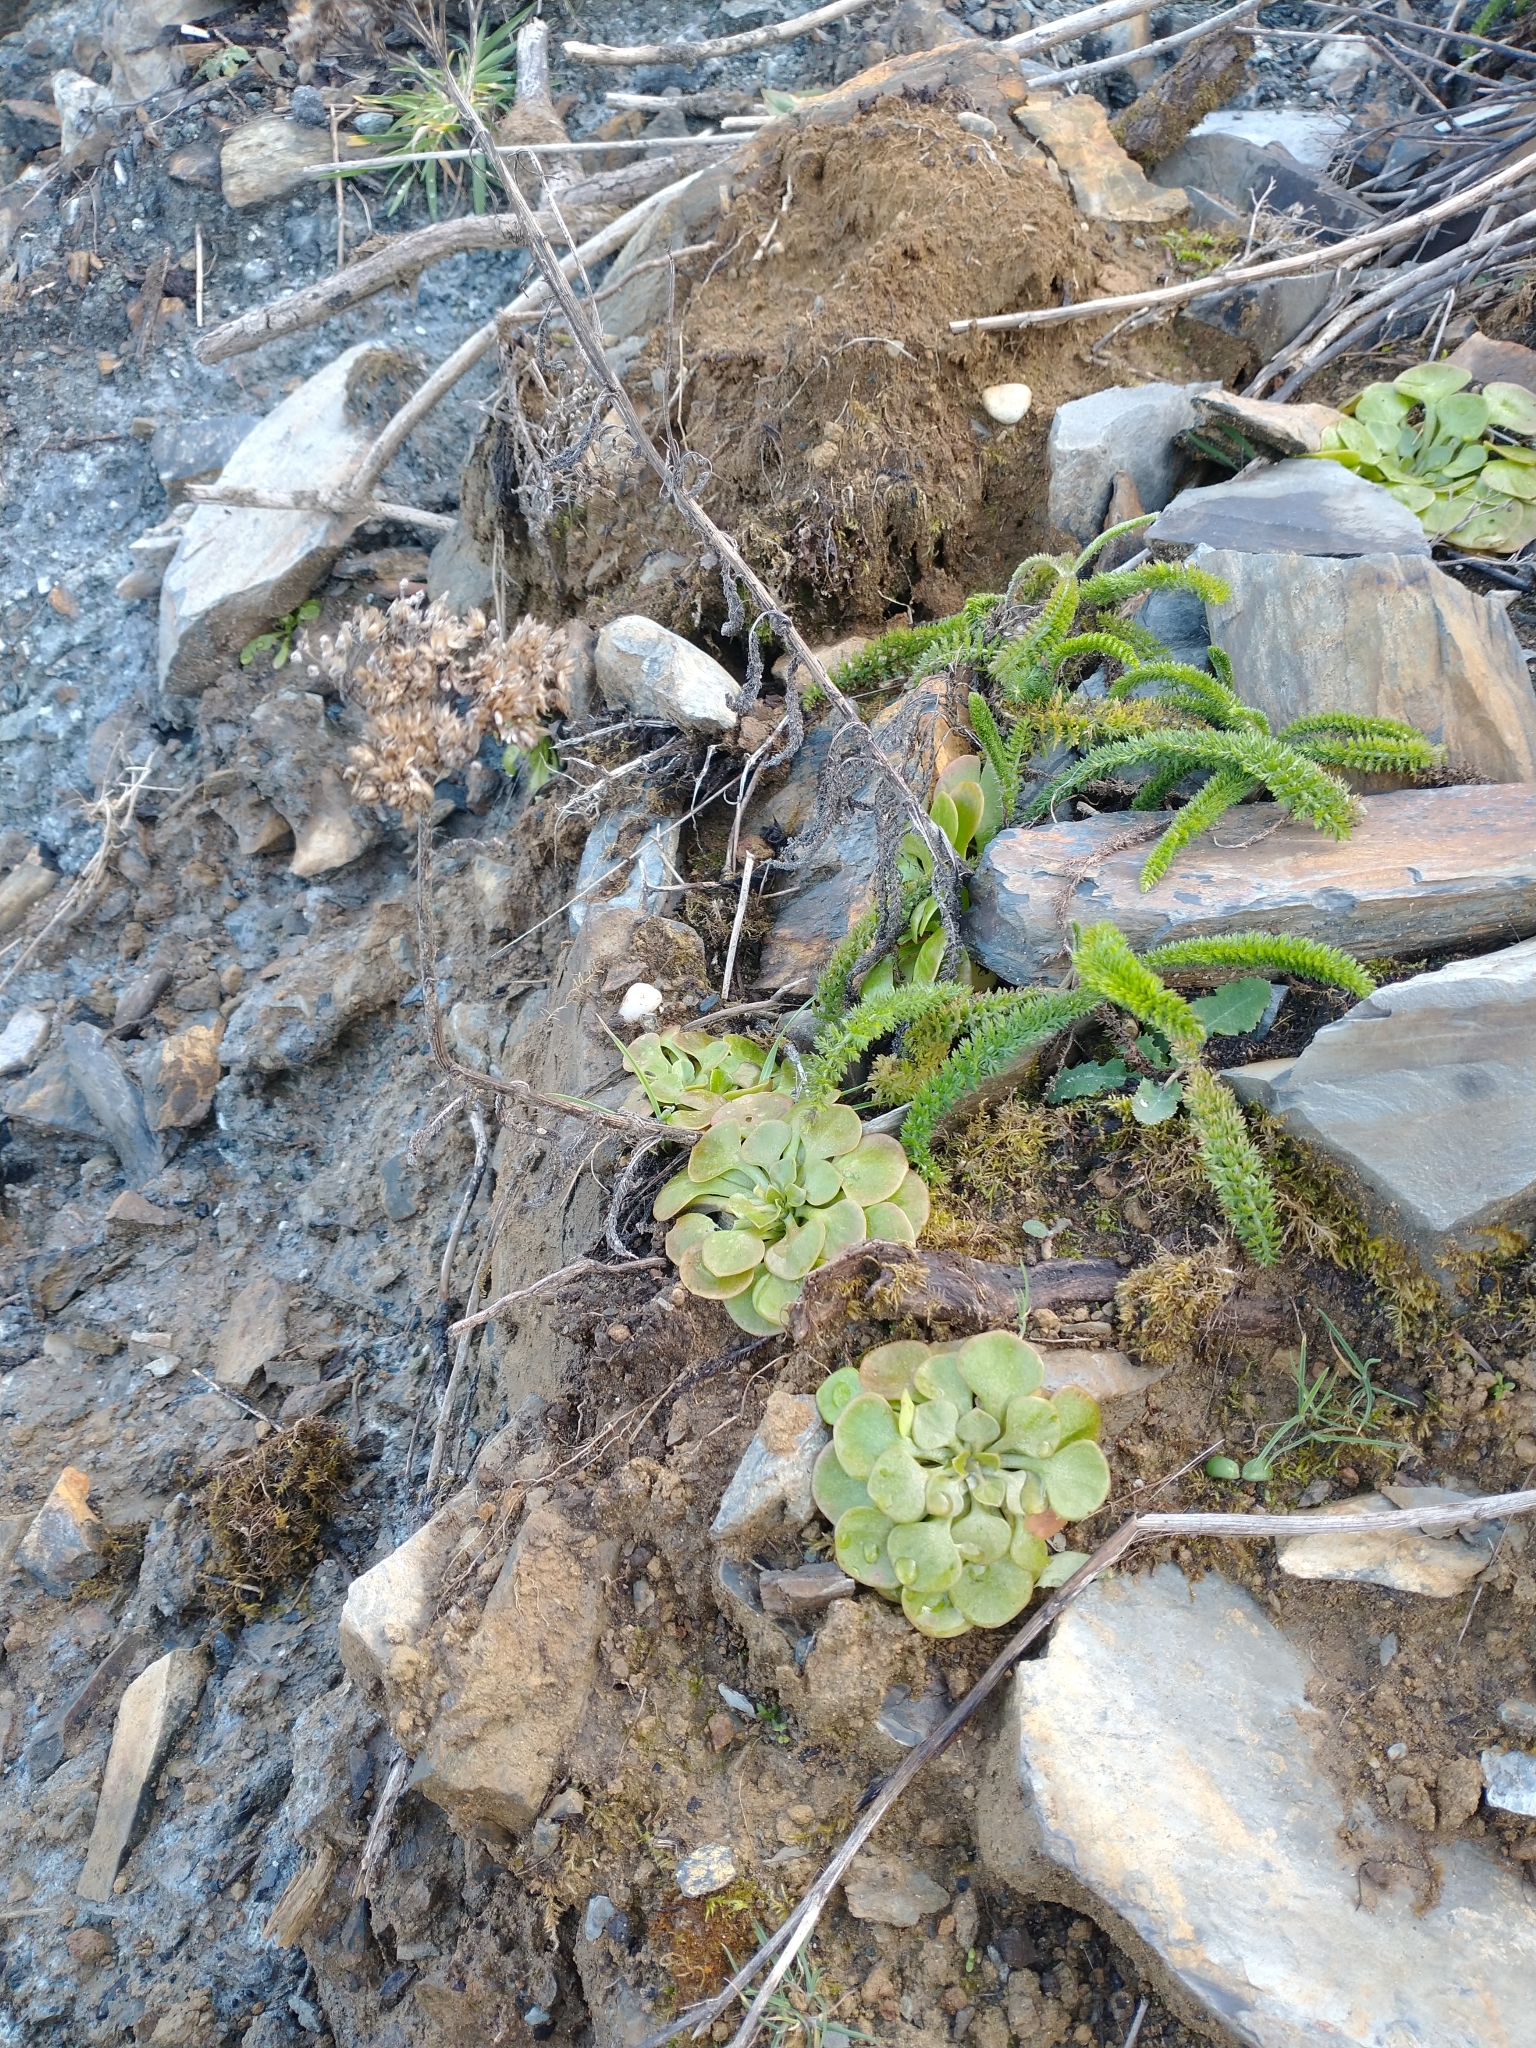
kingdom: Plantae
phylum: Tracheophyta
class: Magnoliopsida
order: Asterales
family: Asteraceae
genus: Achillea
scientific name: Achillea millefolium
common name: Yarrow
